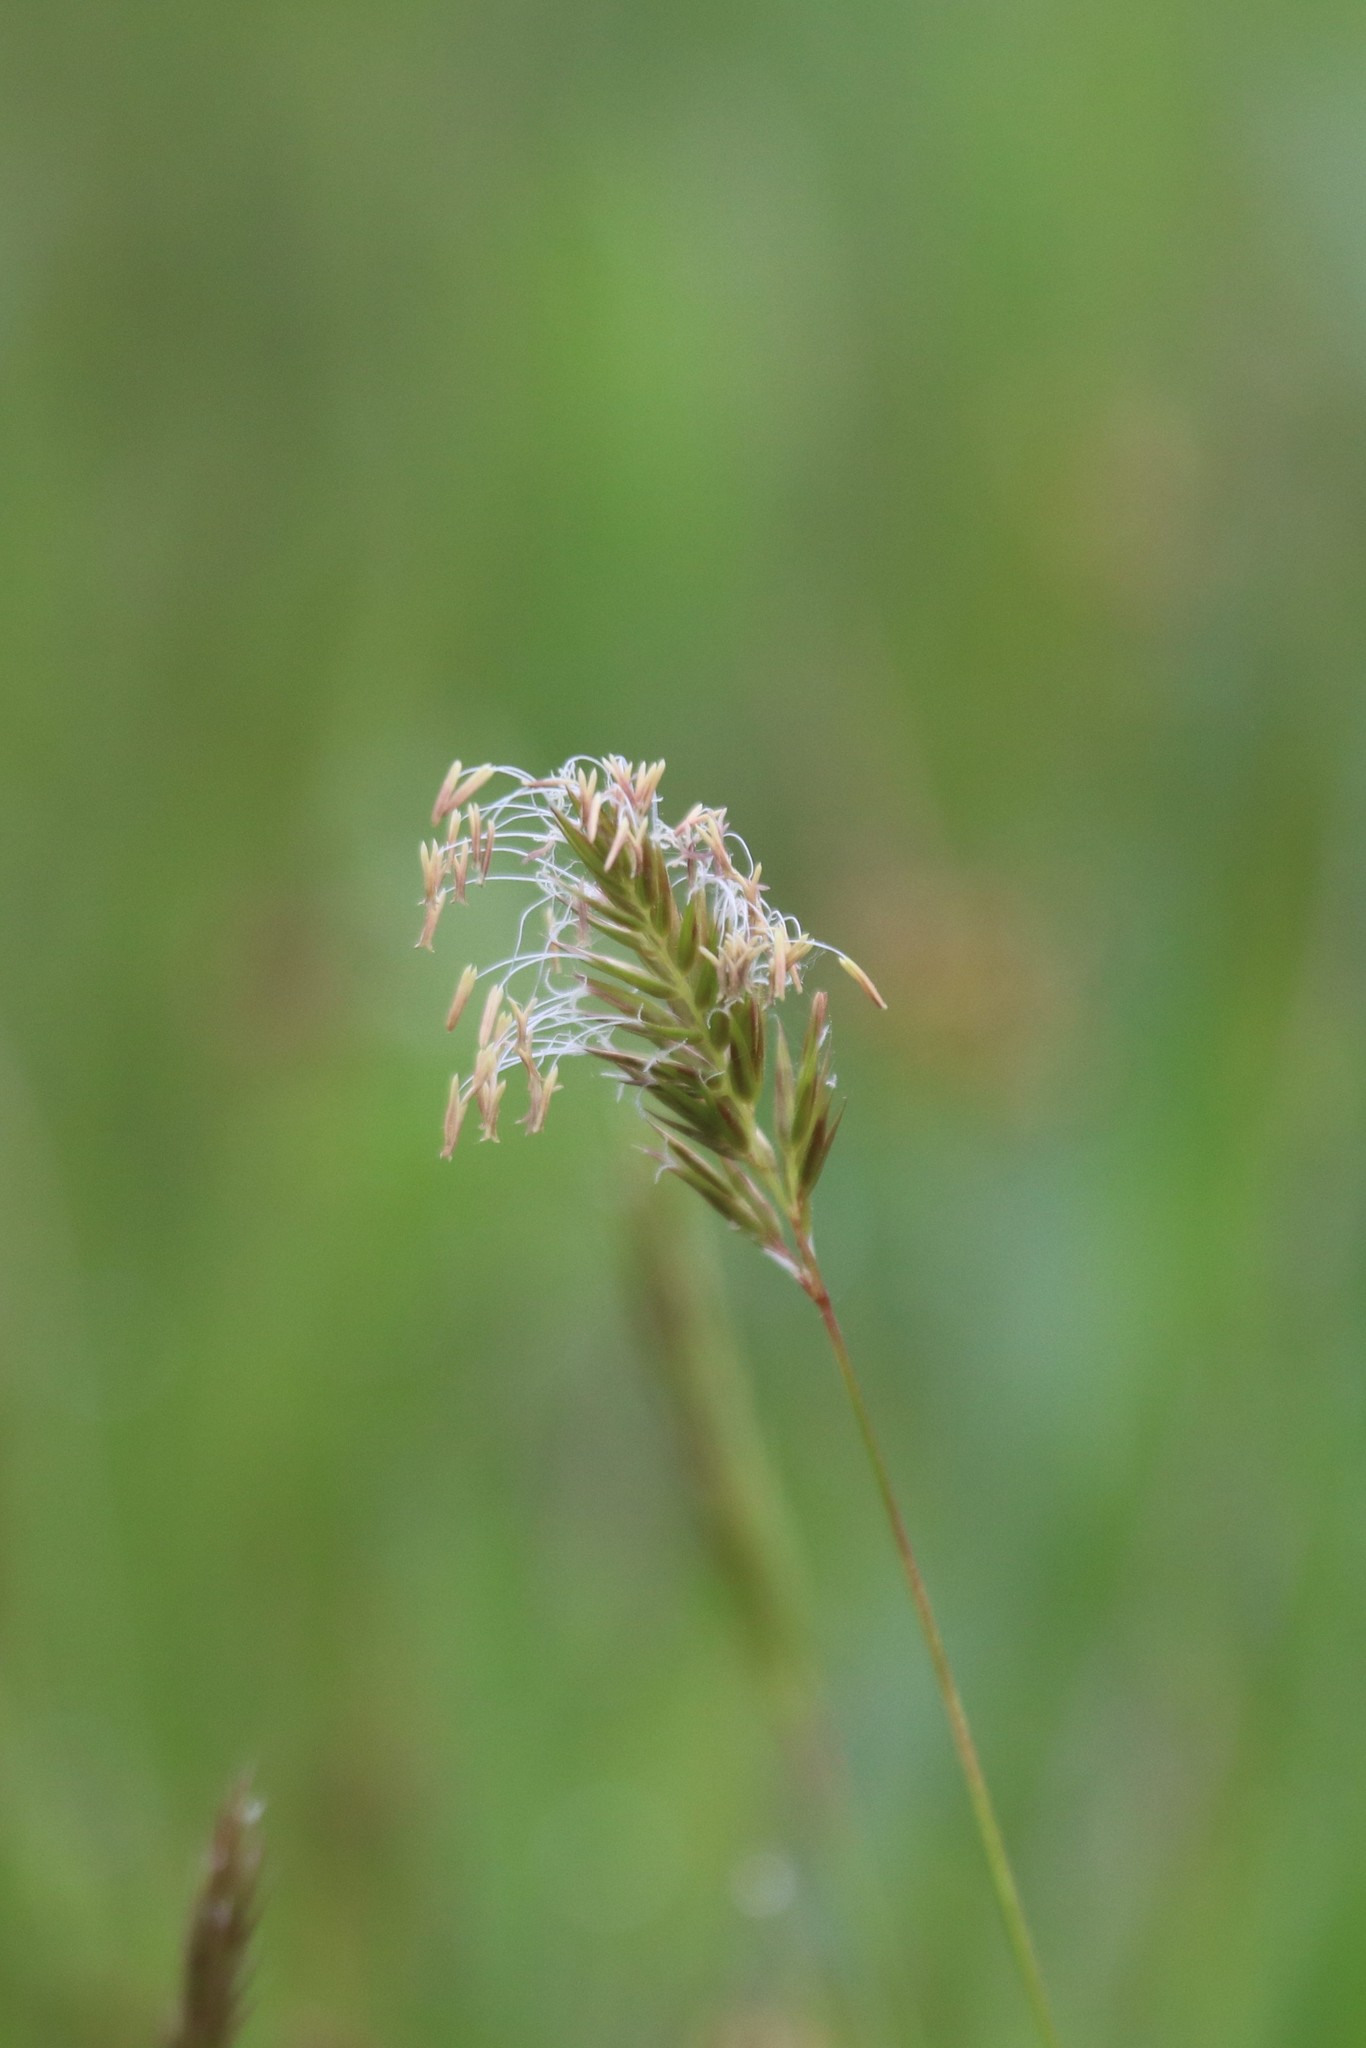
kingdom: Plantae
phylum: Tracheophyta
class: Liliopsida
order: Poales
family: Poaceae
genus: Anthoxanthum
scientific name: Anthoxanthum odoratum
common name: Sweet vernalgrass
